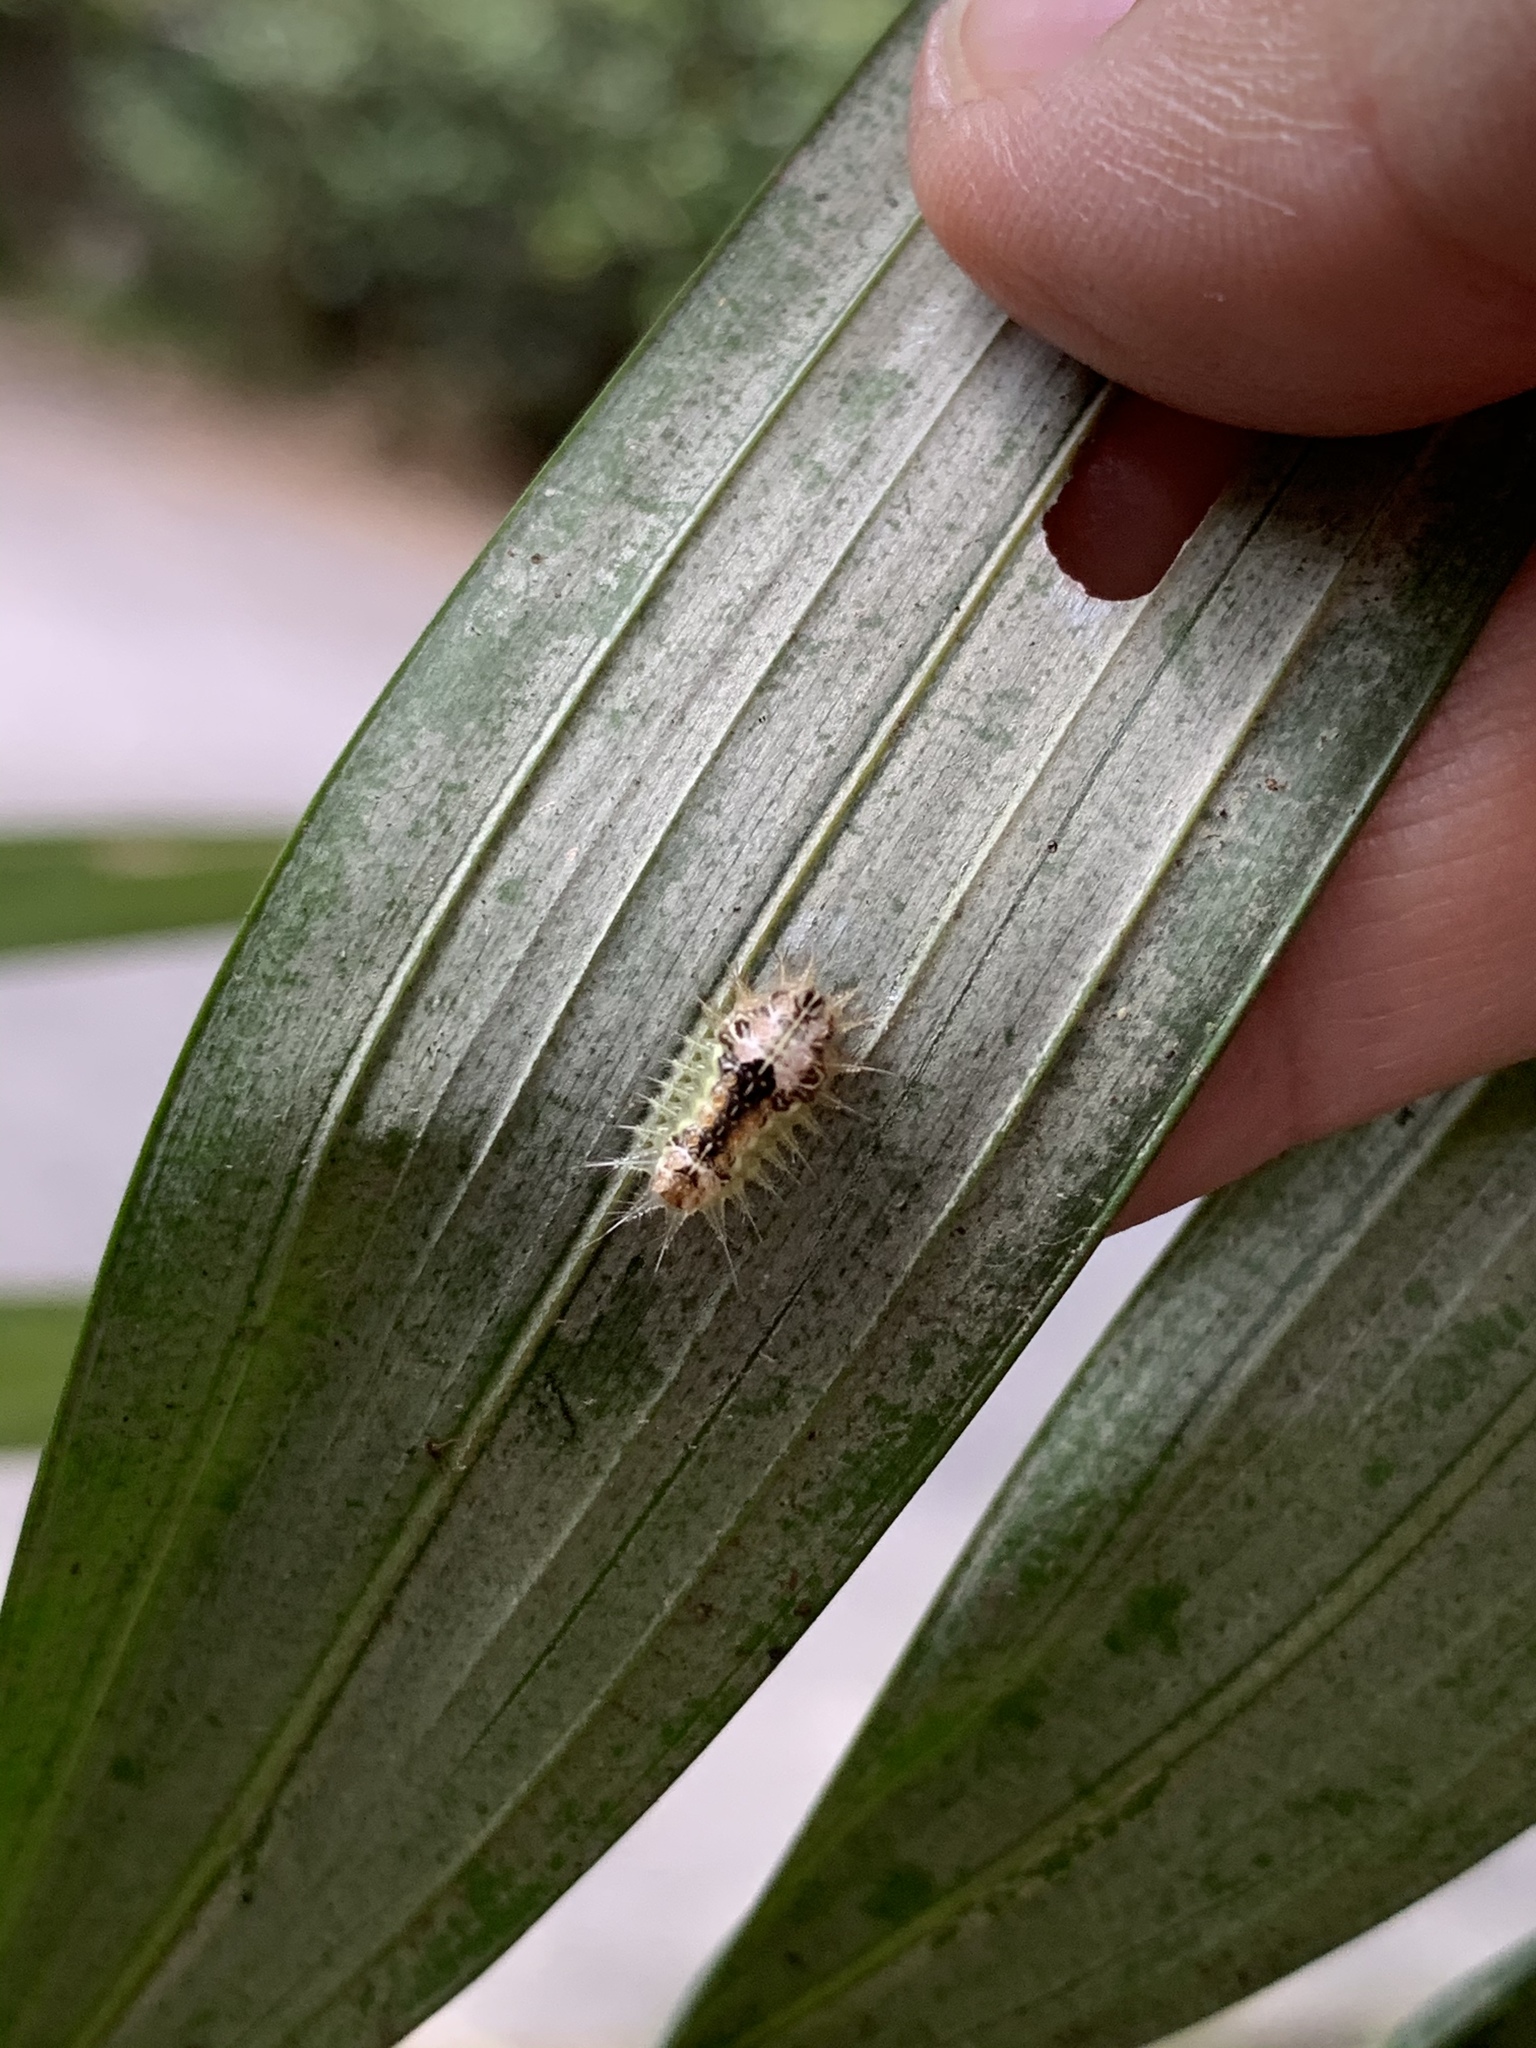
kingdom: Animalia
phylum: Arthropoda
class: Insecta
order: Lepidoptera
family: Limacodidae
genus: Orthocraspeda
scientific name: Orthocraspeda furva
